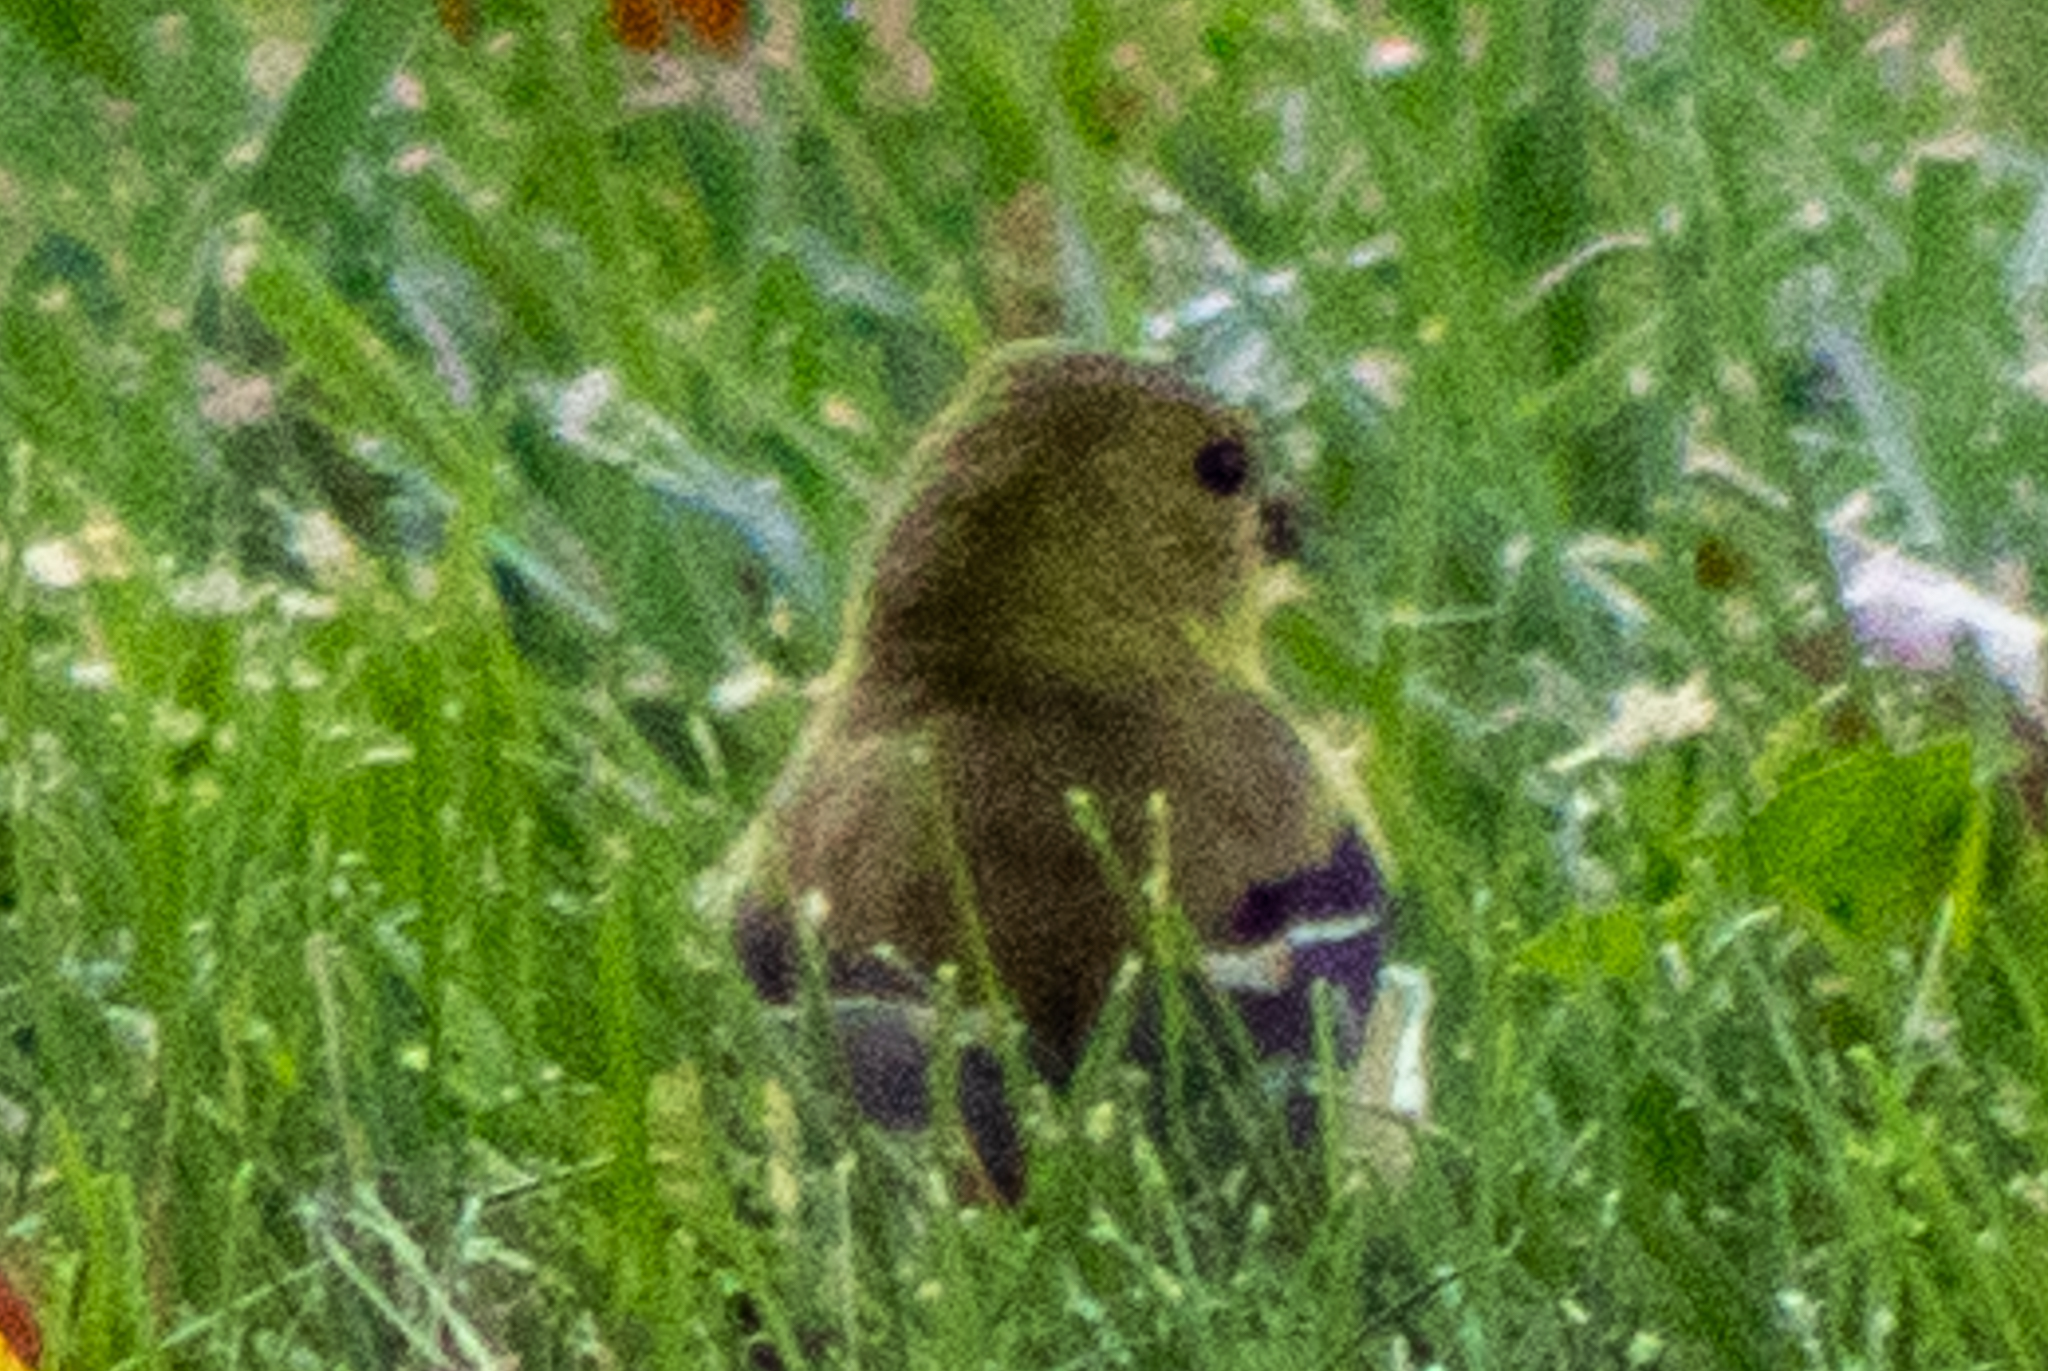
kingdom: Animalia
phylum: Chordata
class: Aves
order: Passeriformes
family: Fringillidae
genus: Spinus
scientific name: Spinus tristis
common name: American goldfinch
